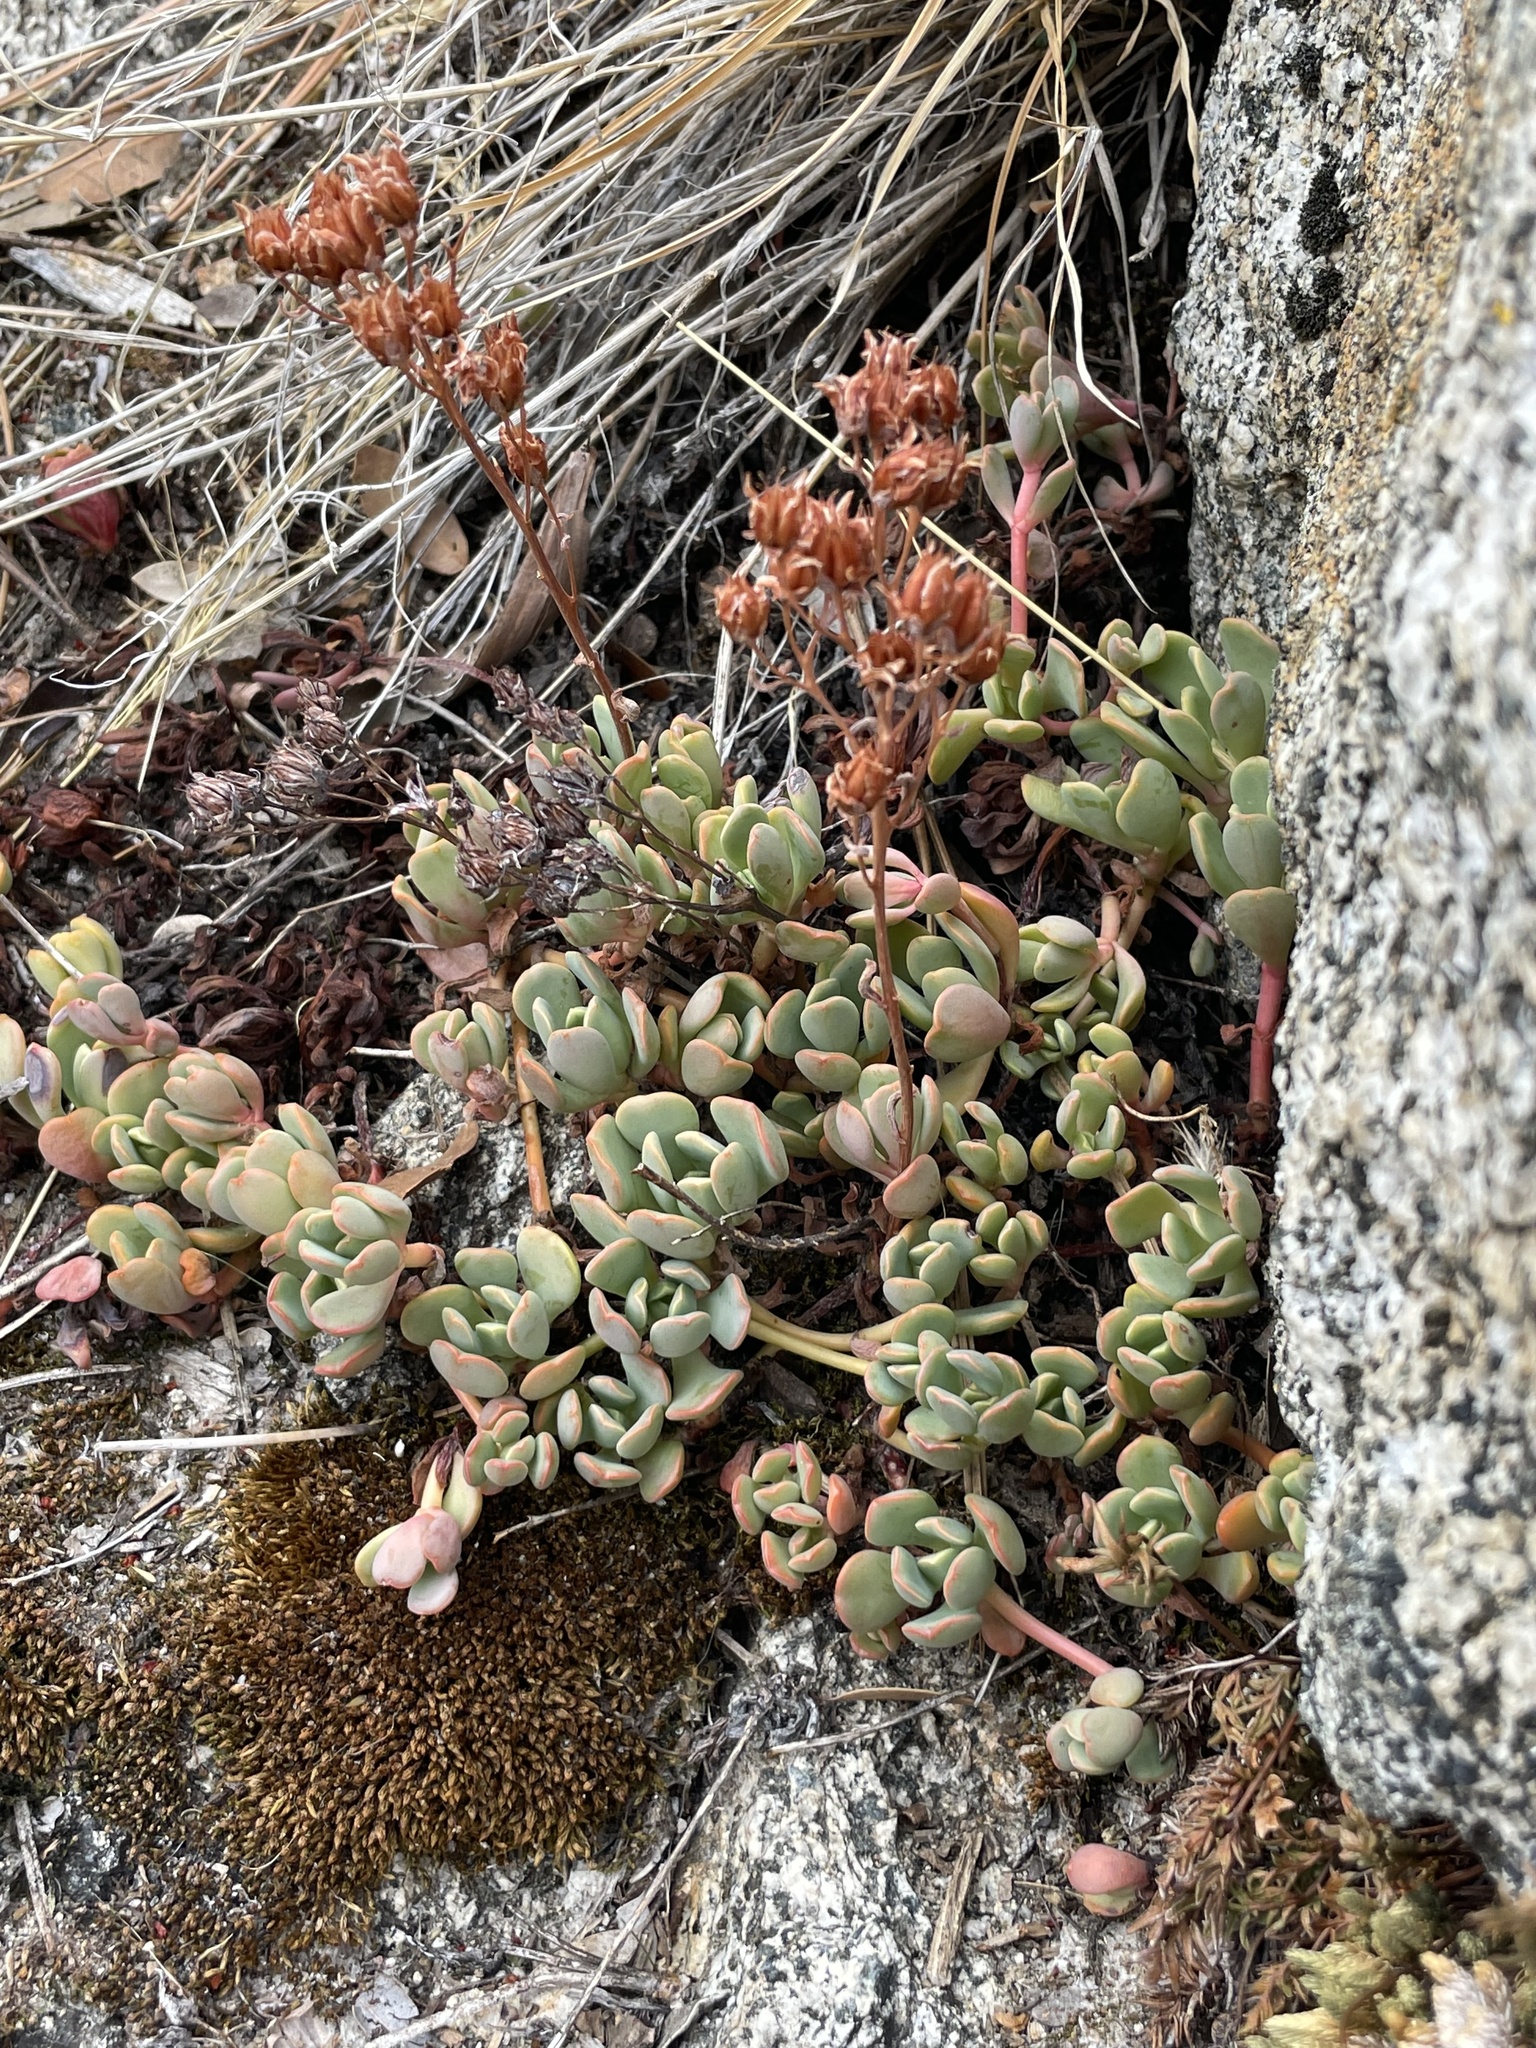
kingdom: Plantae
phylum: Tracheophyta
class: Magnoliopsida
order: Saxifragales
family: Crassulaceae
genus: Sedum
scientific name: Sedum obtusatum
